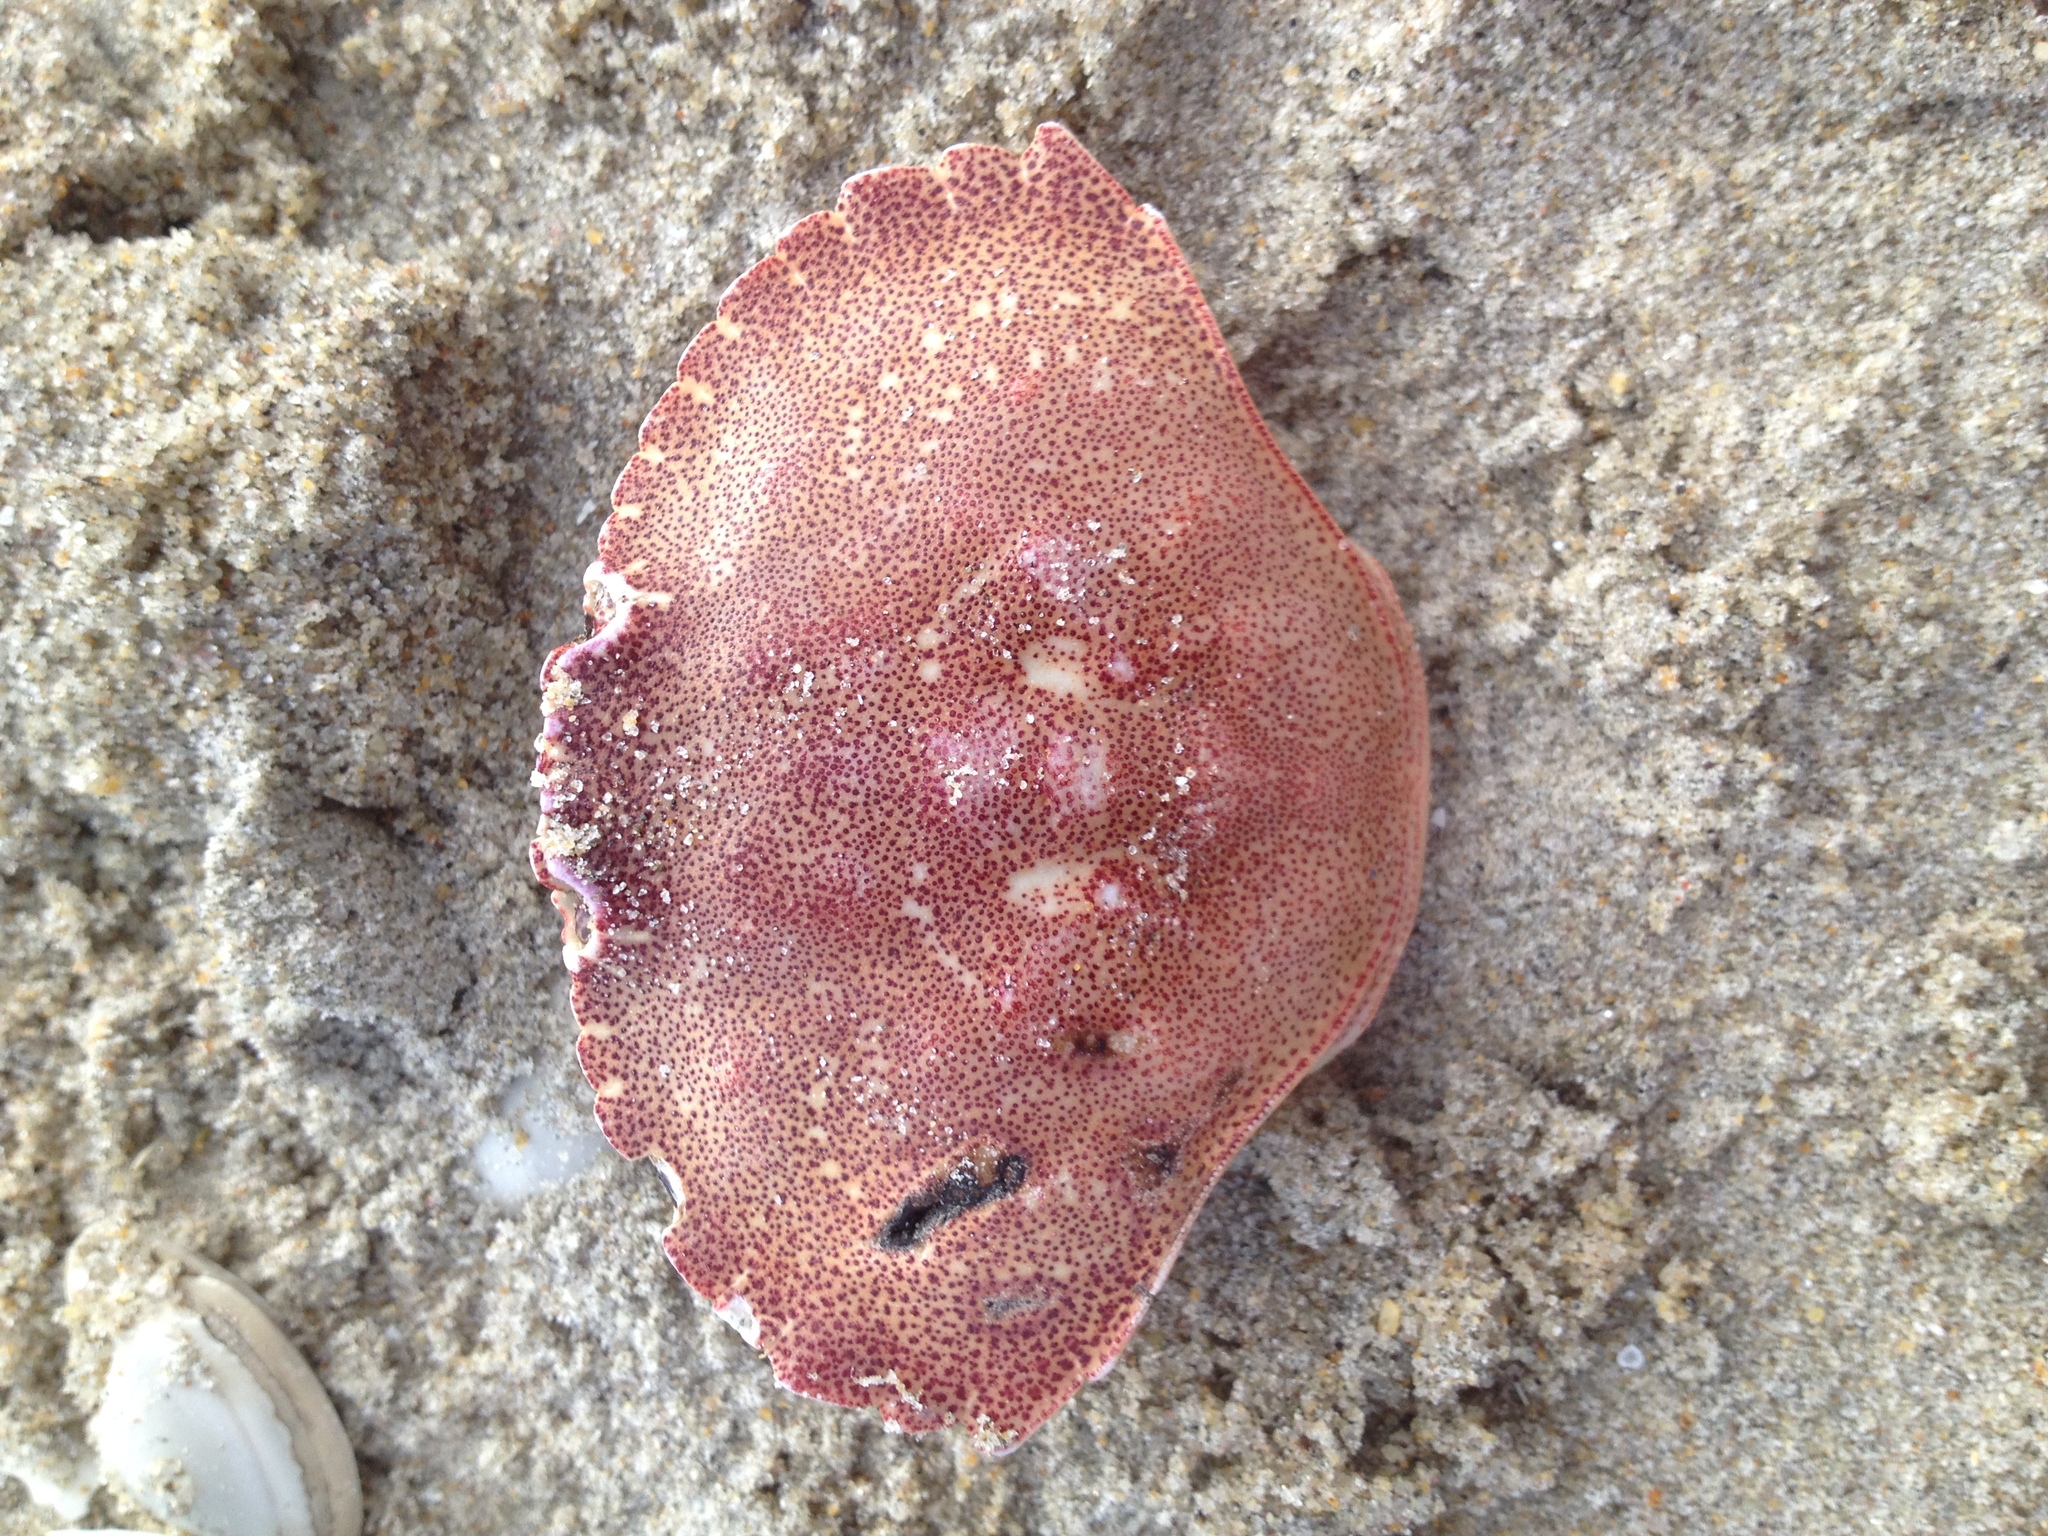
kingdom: Animalia
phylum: Arthropoda
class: Malacostraca
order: Decapoda
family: Cancridae
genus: Cancer
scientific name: Cancer irroratus
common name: Atlantic rock crab
